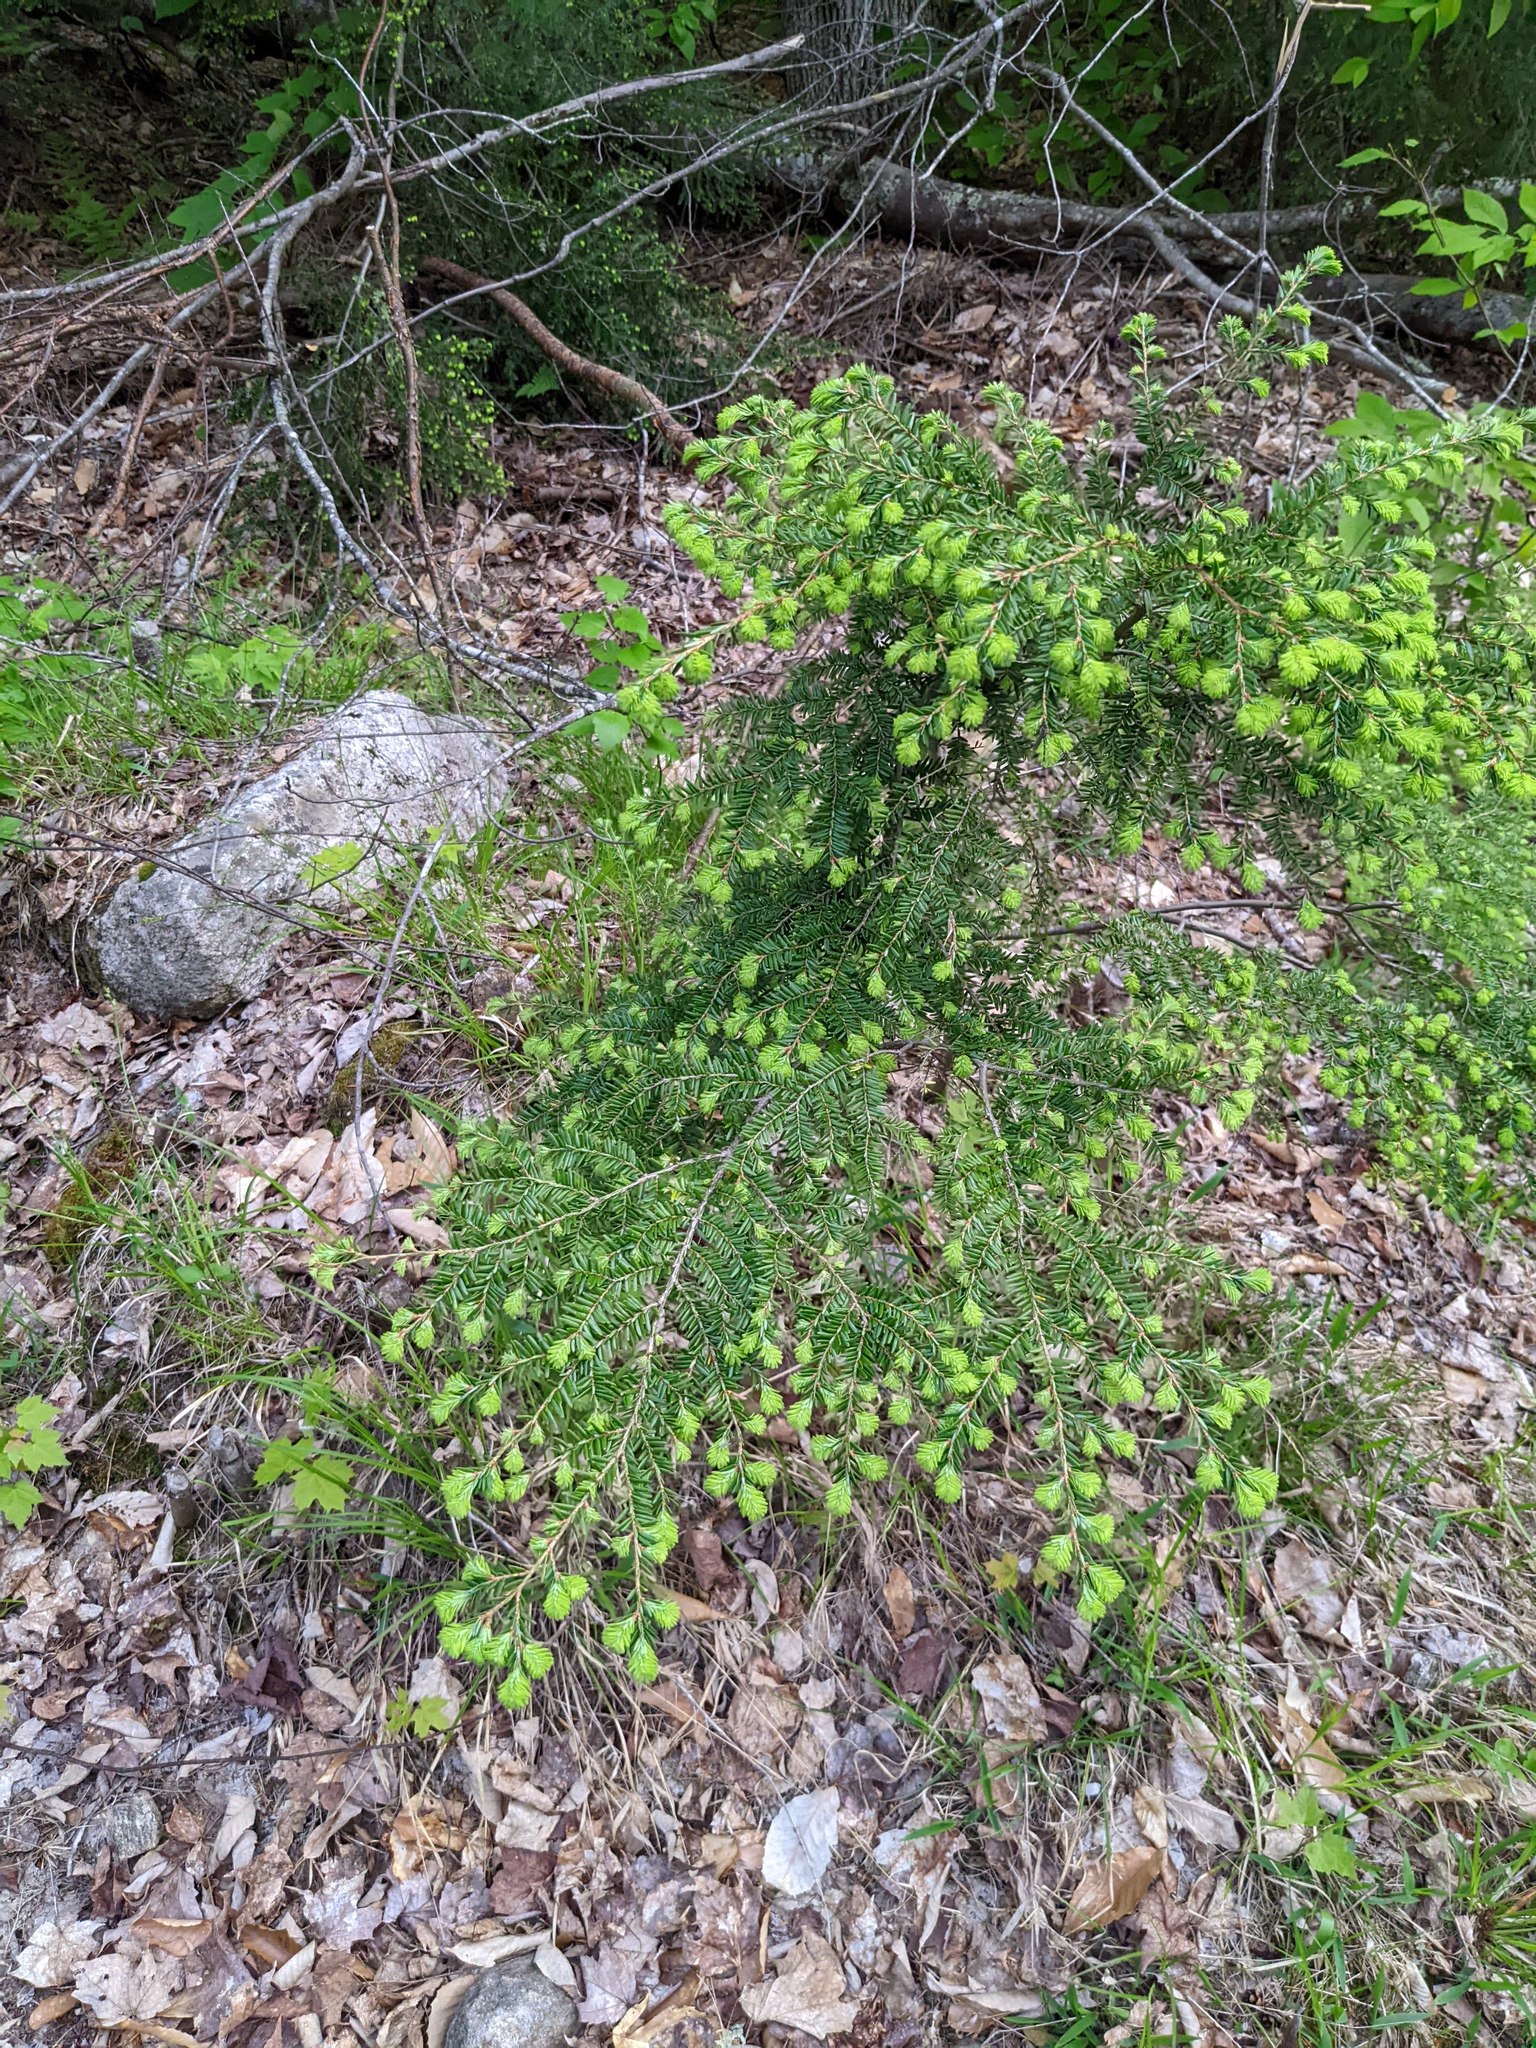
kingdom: Plantae
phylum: Tracheophyta
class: Pinopsida
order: Pinales
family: Pinaceae
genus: Tsuga
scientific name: Tsuga canadensis
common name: Eastern hemlock
